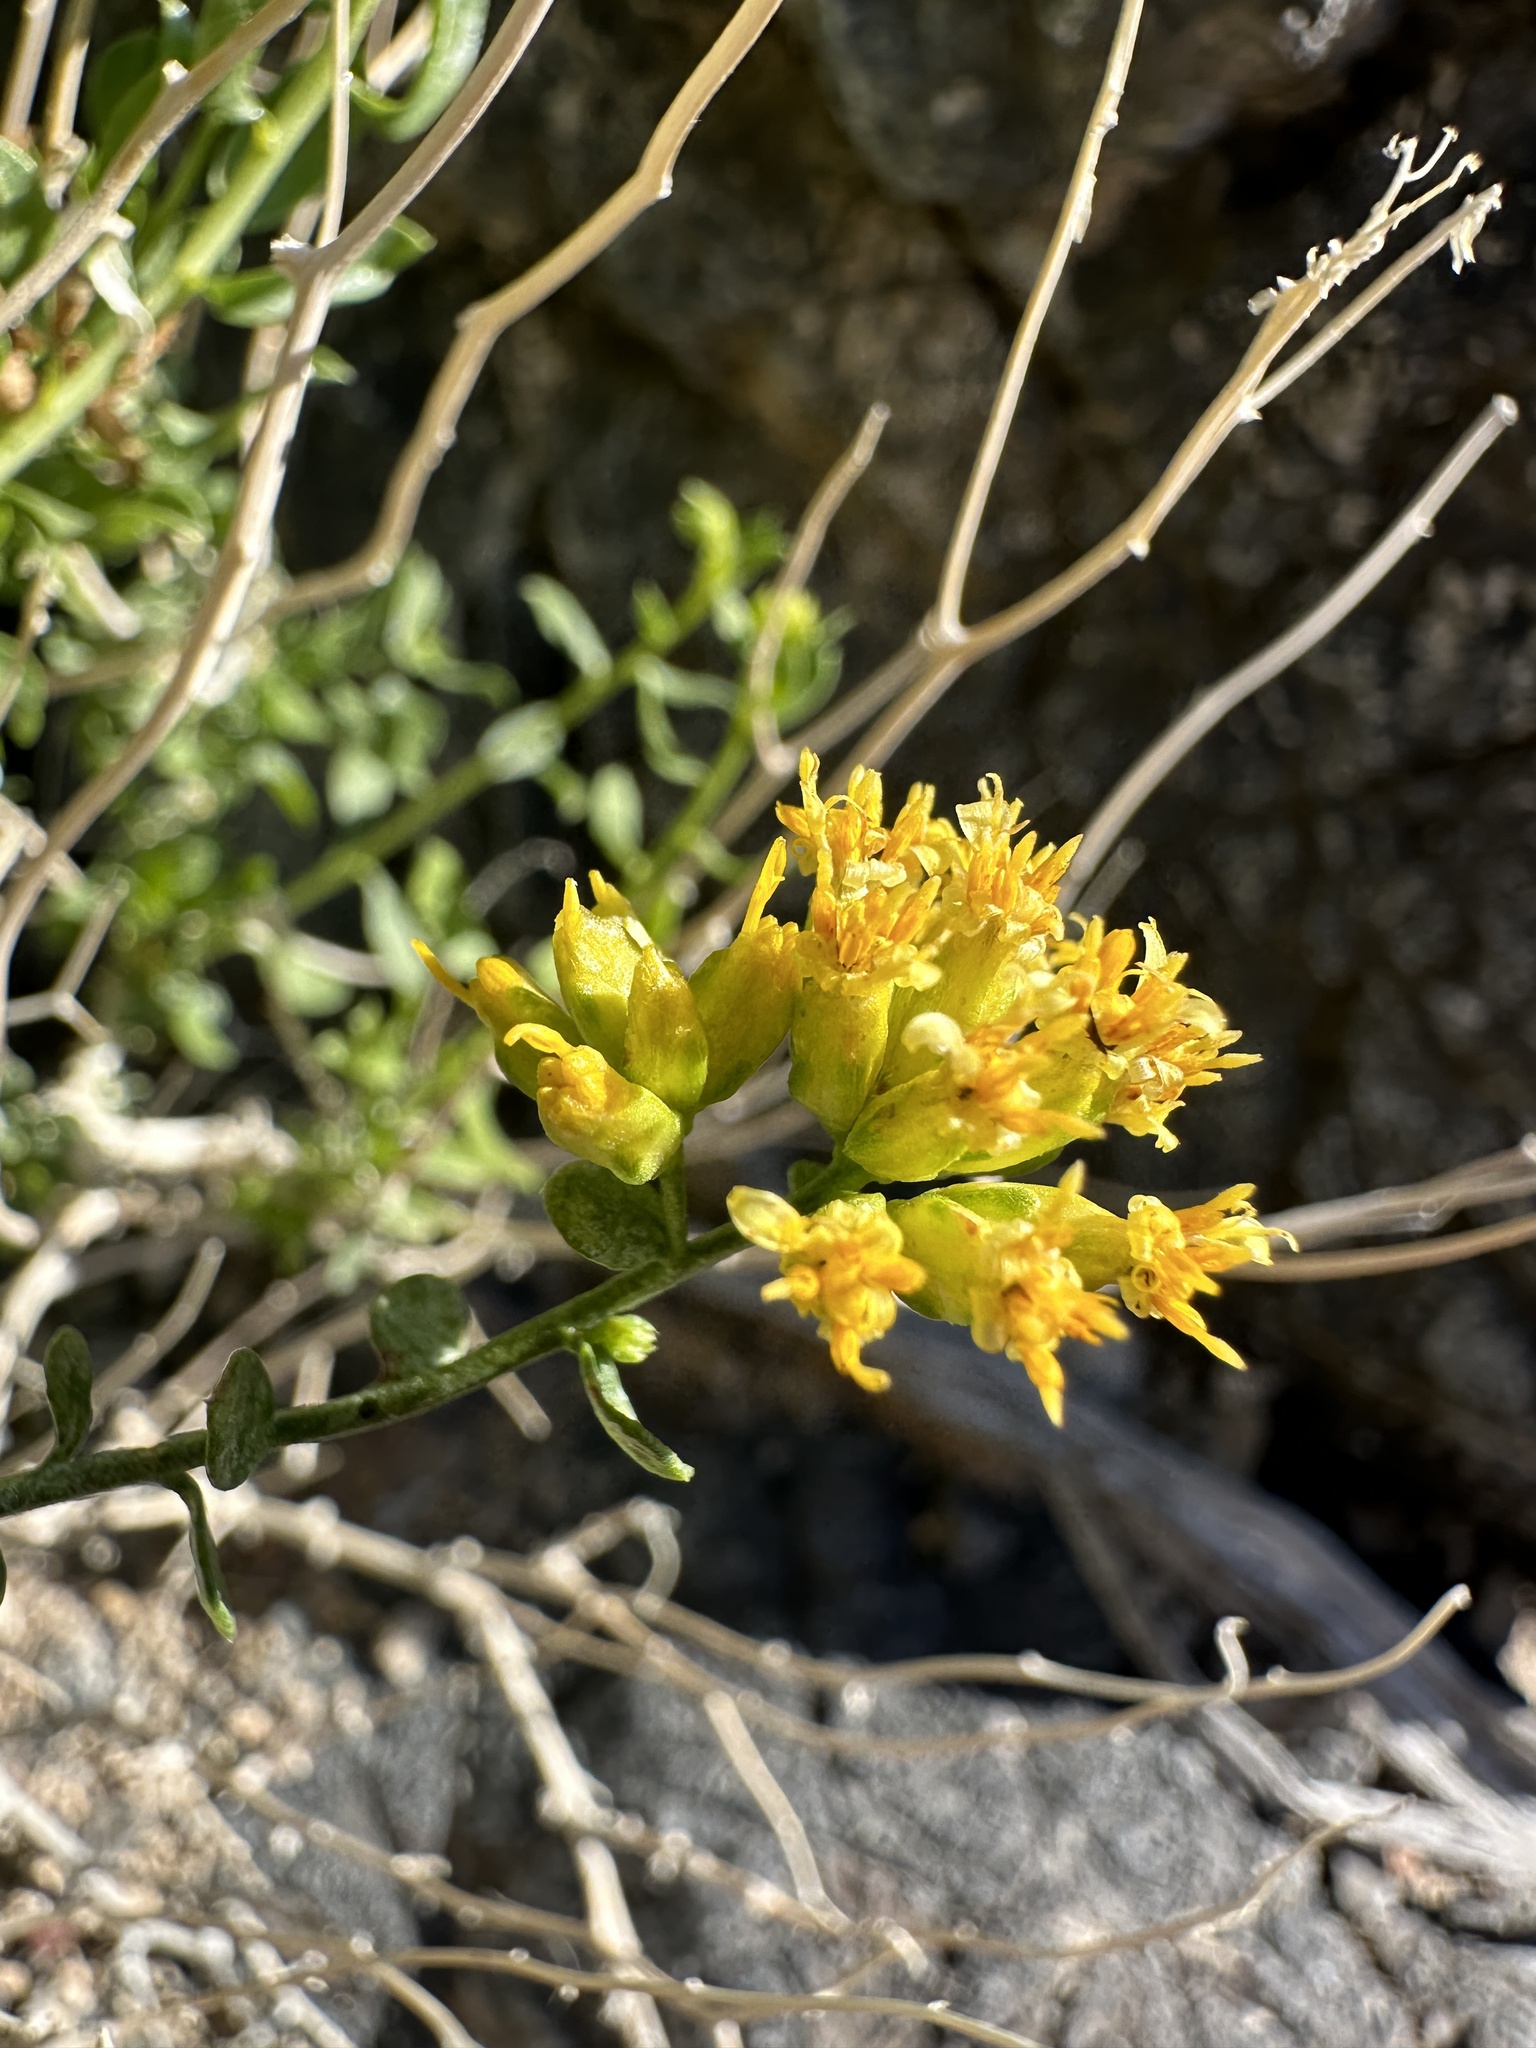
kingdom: Plantae
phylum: Tracheophyta
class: Magnoliopsida
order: Asterales
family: Asteraceae
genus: Amphipappus
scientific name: Amphipappus fremontii
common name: Fremont's chaffbush
